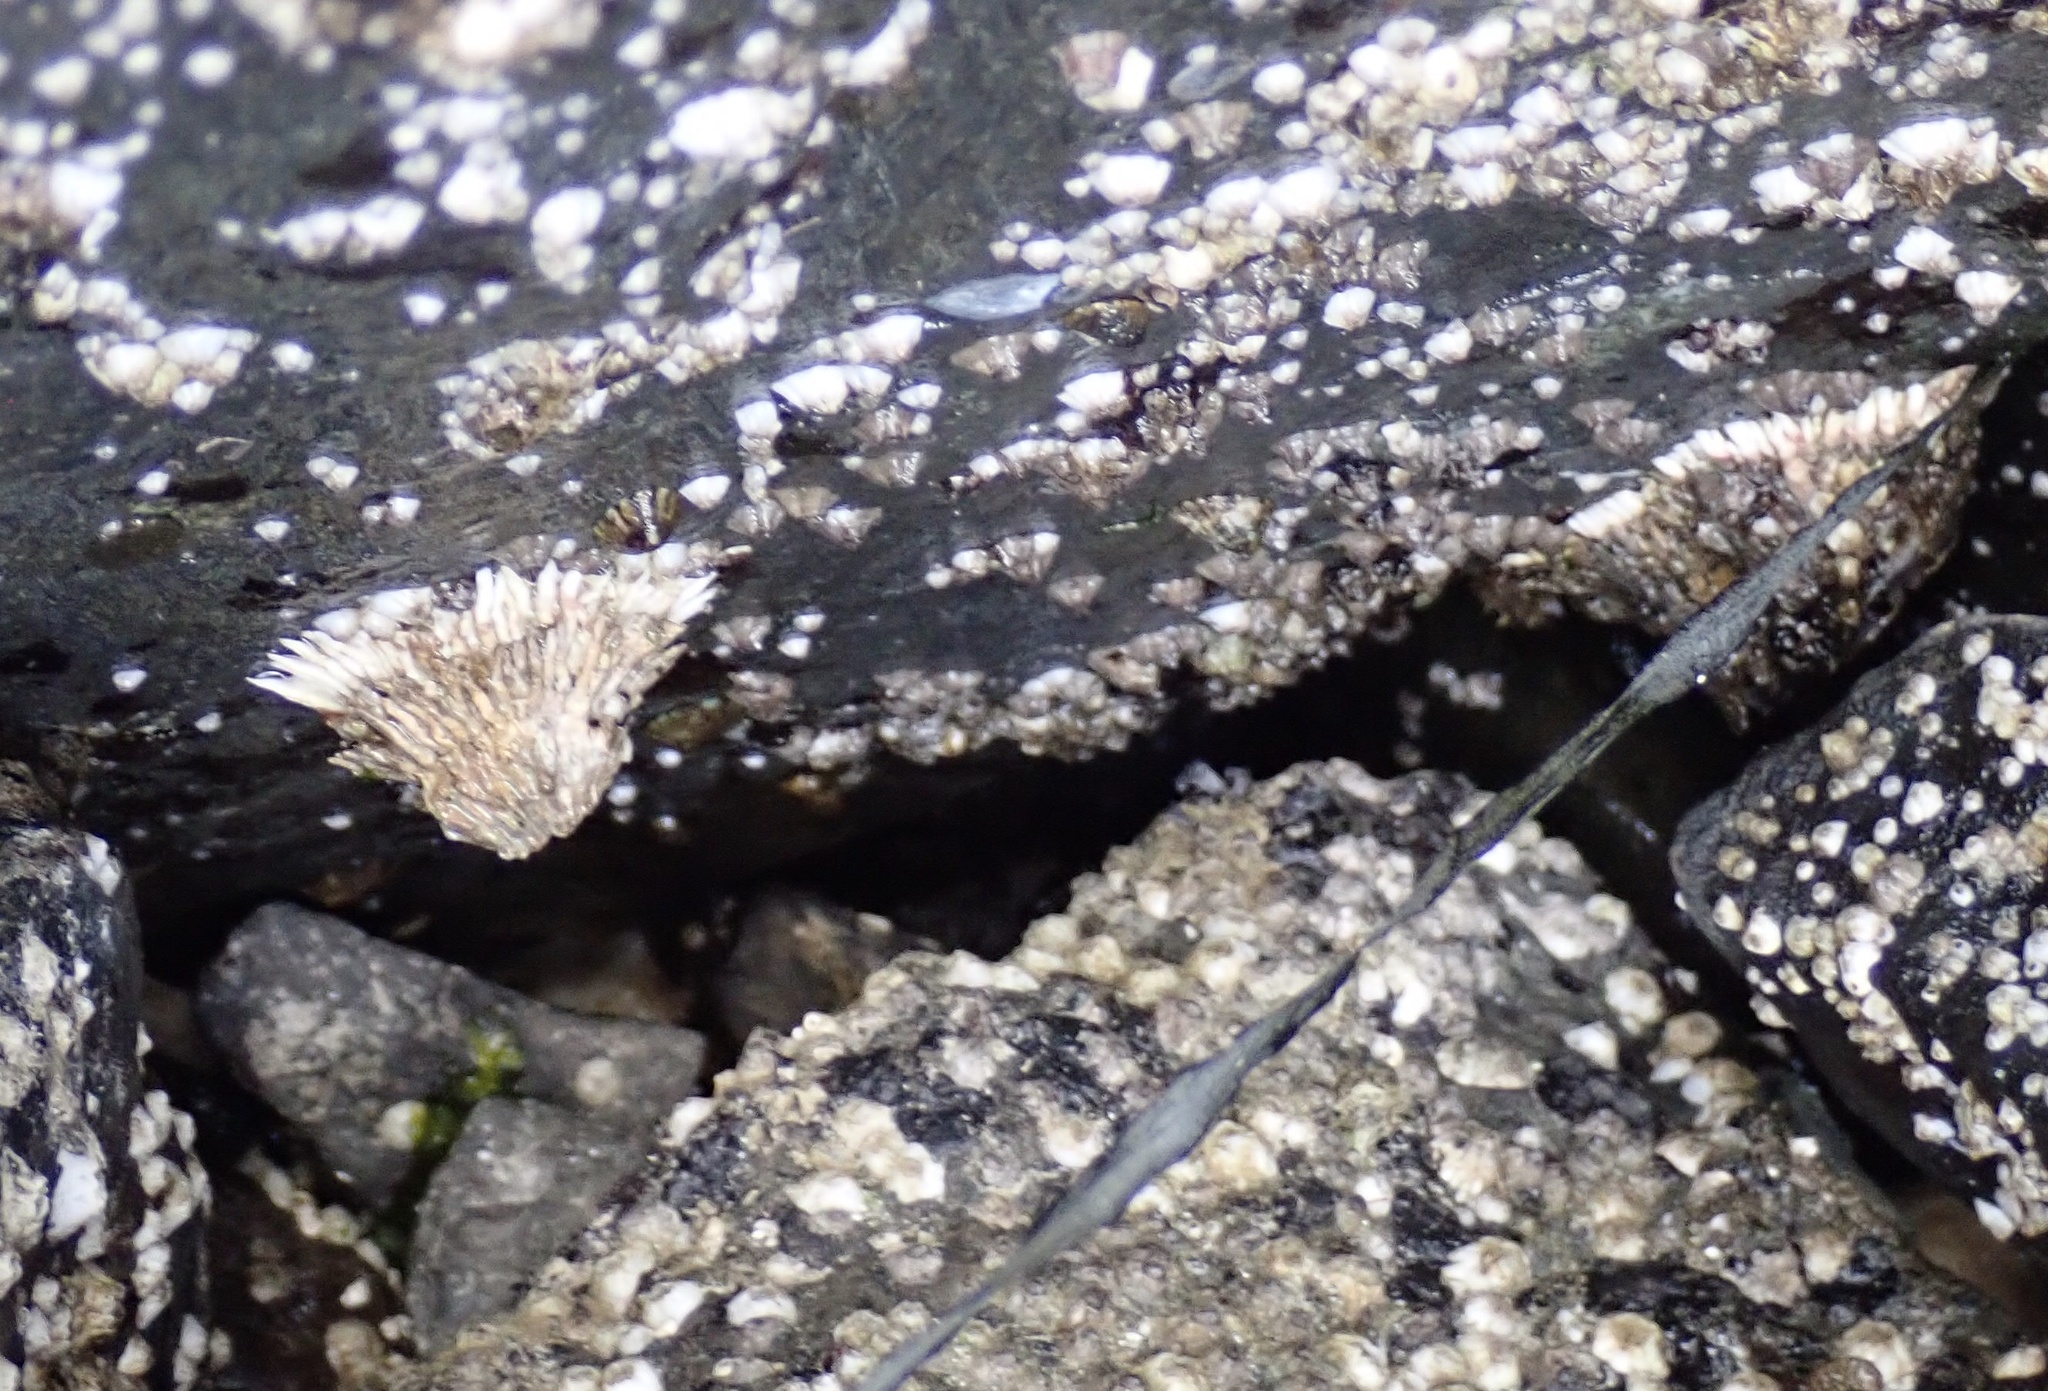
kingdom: Animalia
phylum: Arthropoda
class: Maxillopoda
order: Sessilia
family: Archaeobalanidae
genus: Semibalanus
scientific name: Semibalanus cariosus
